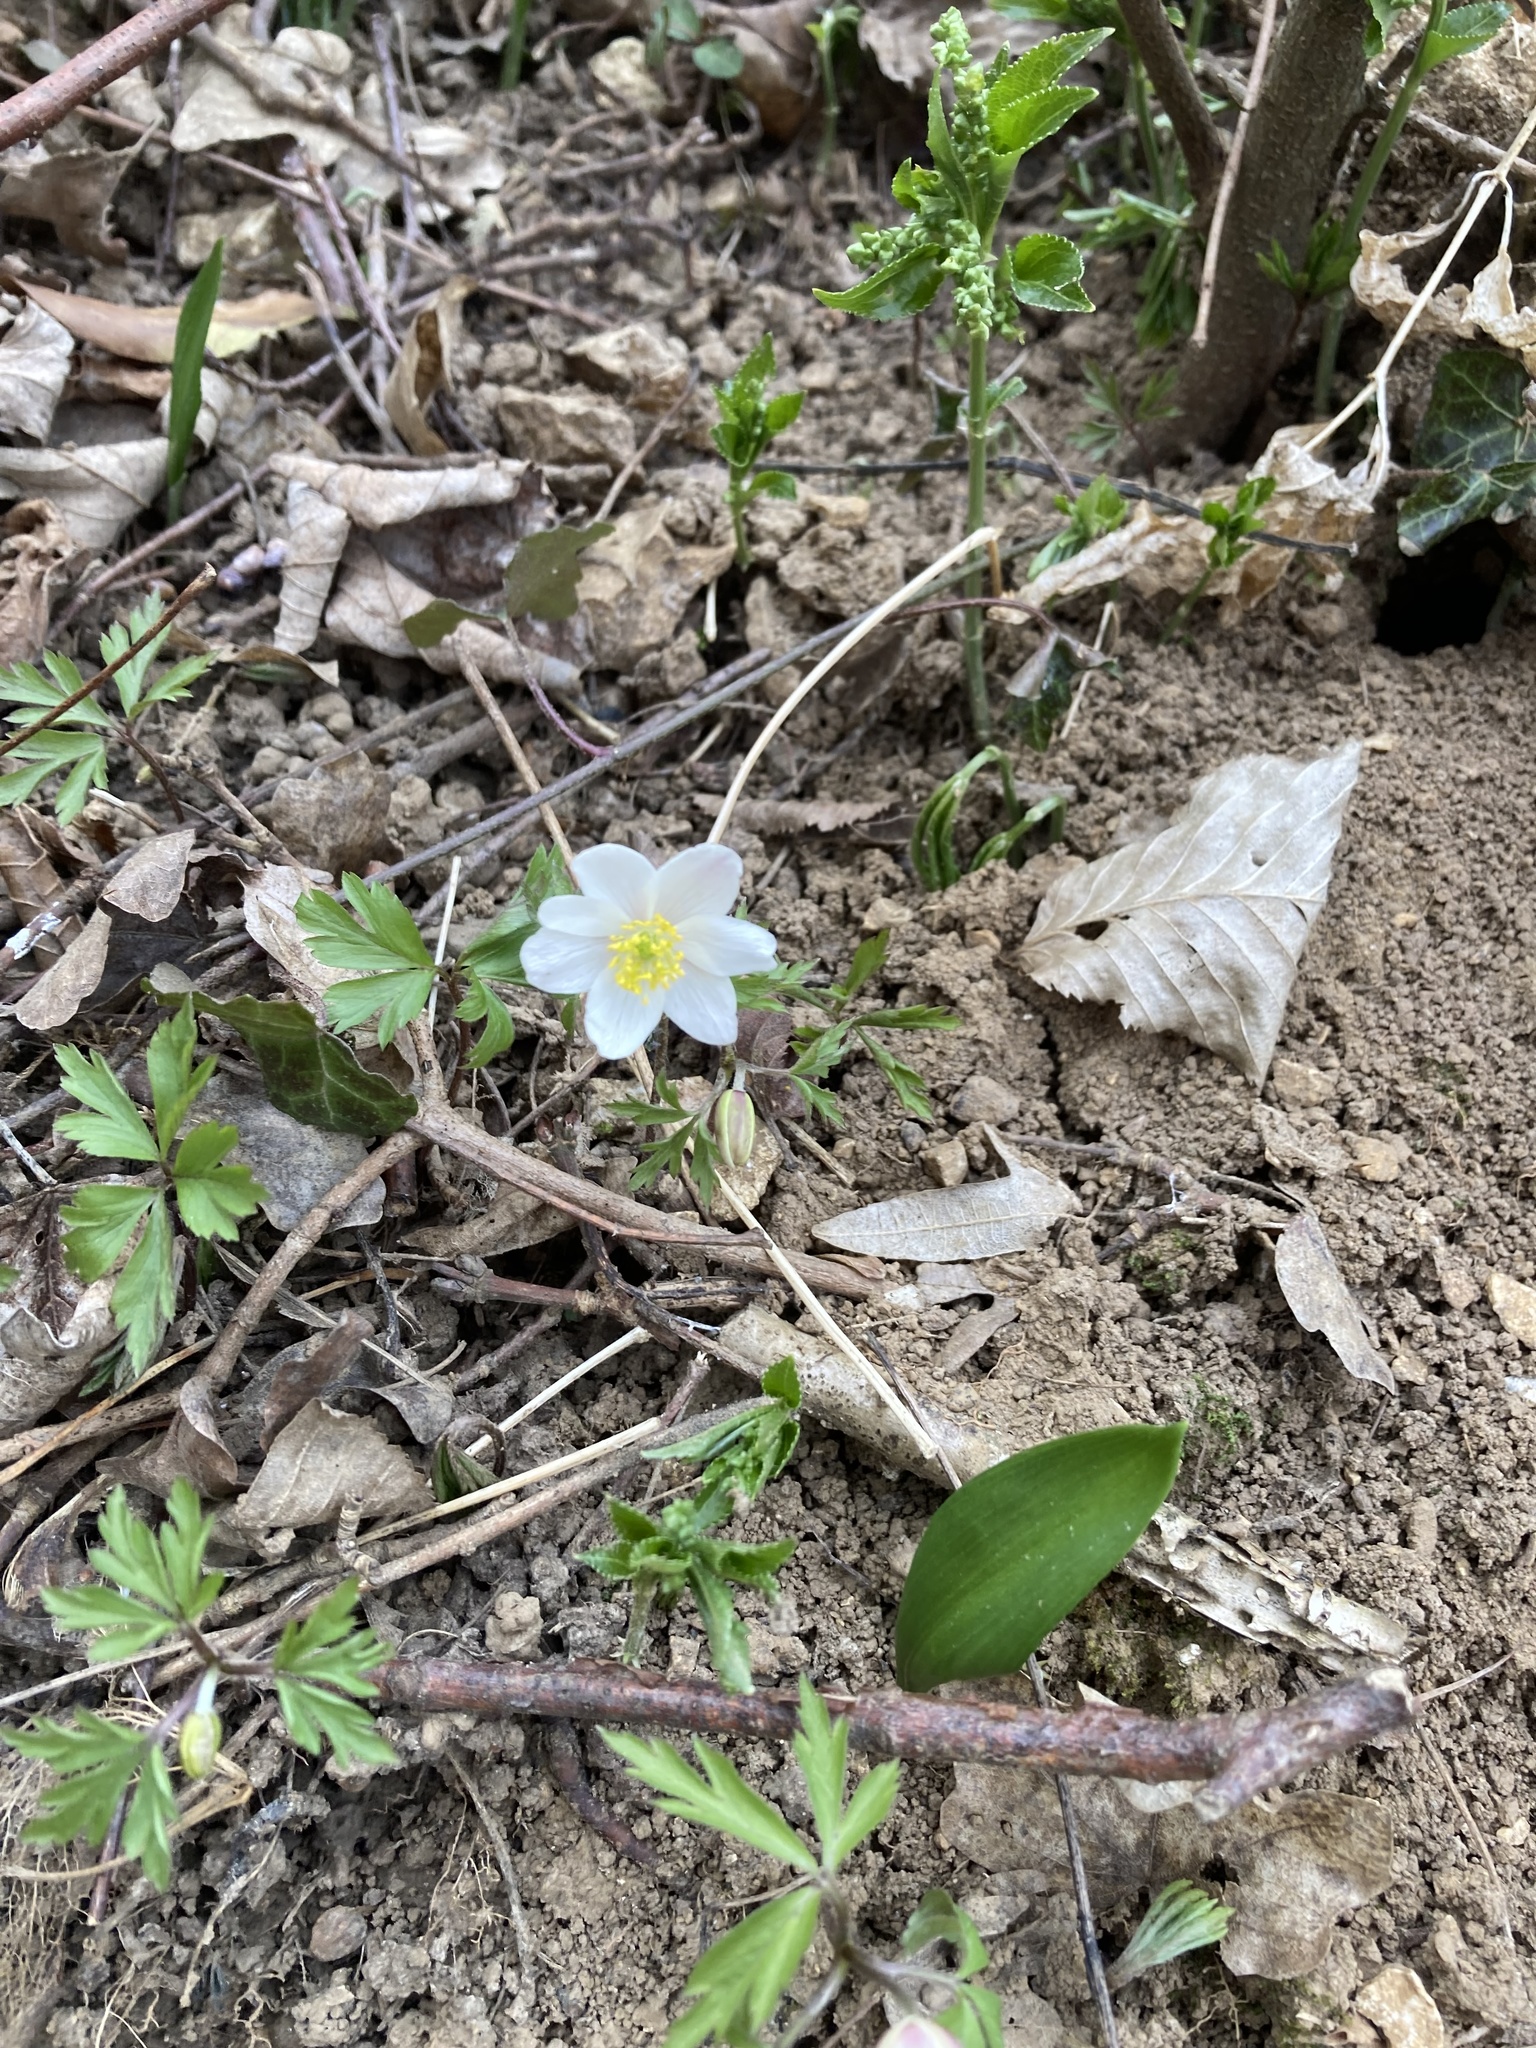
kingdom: Plantae
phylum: Tracheophyta
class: Magnoliopsida
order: Ranunculales
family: Ranunculaceae
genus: Anemone
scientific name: Anemone nemorosa
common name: Wood anemone
